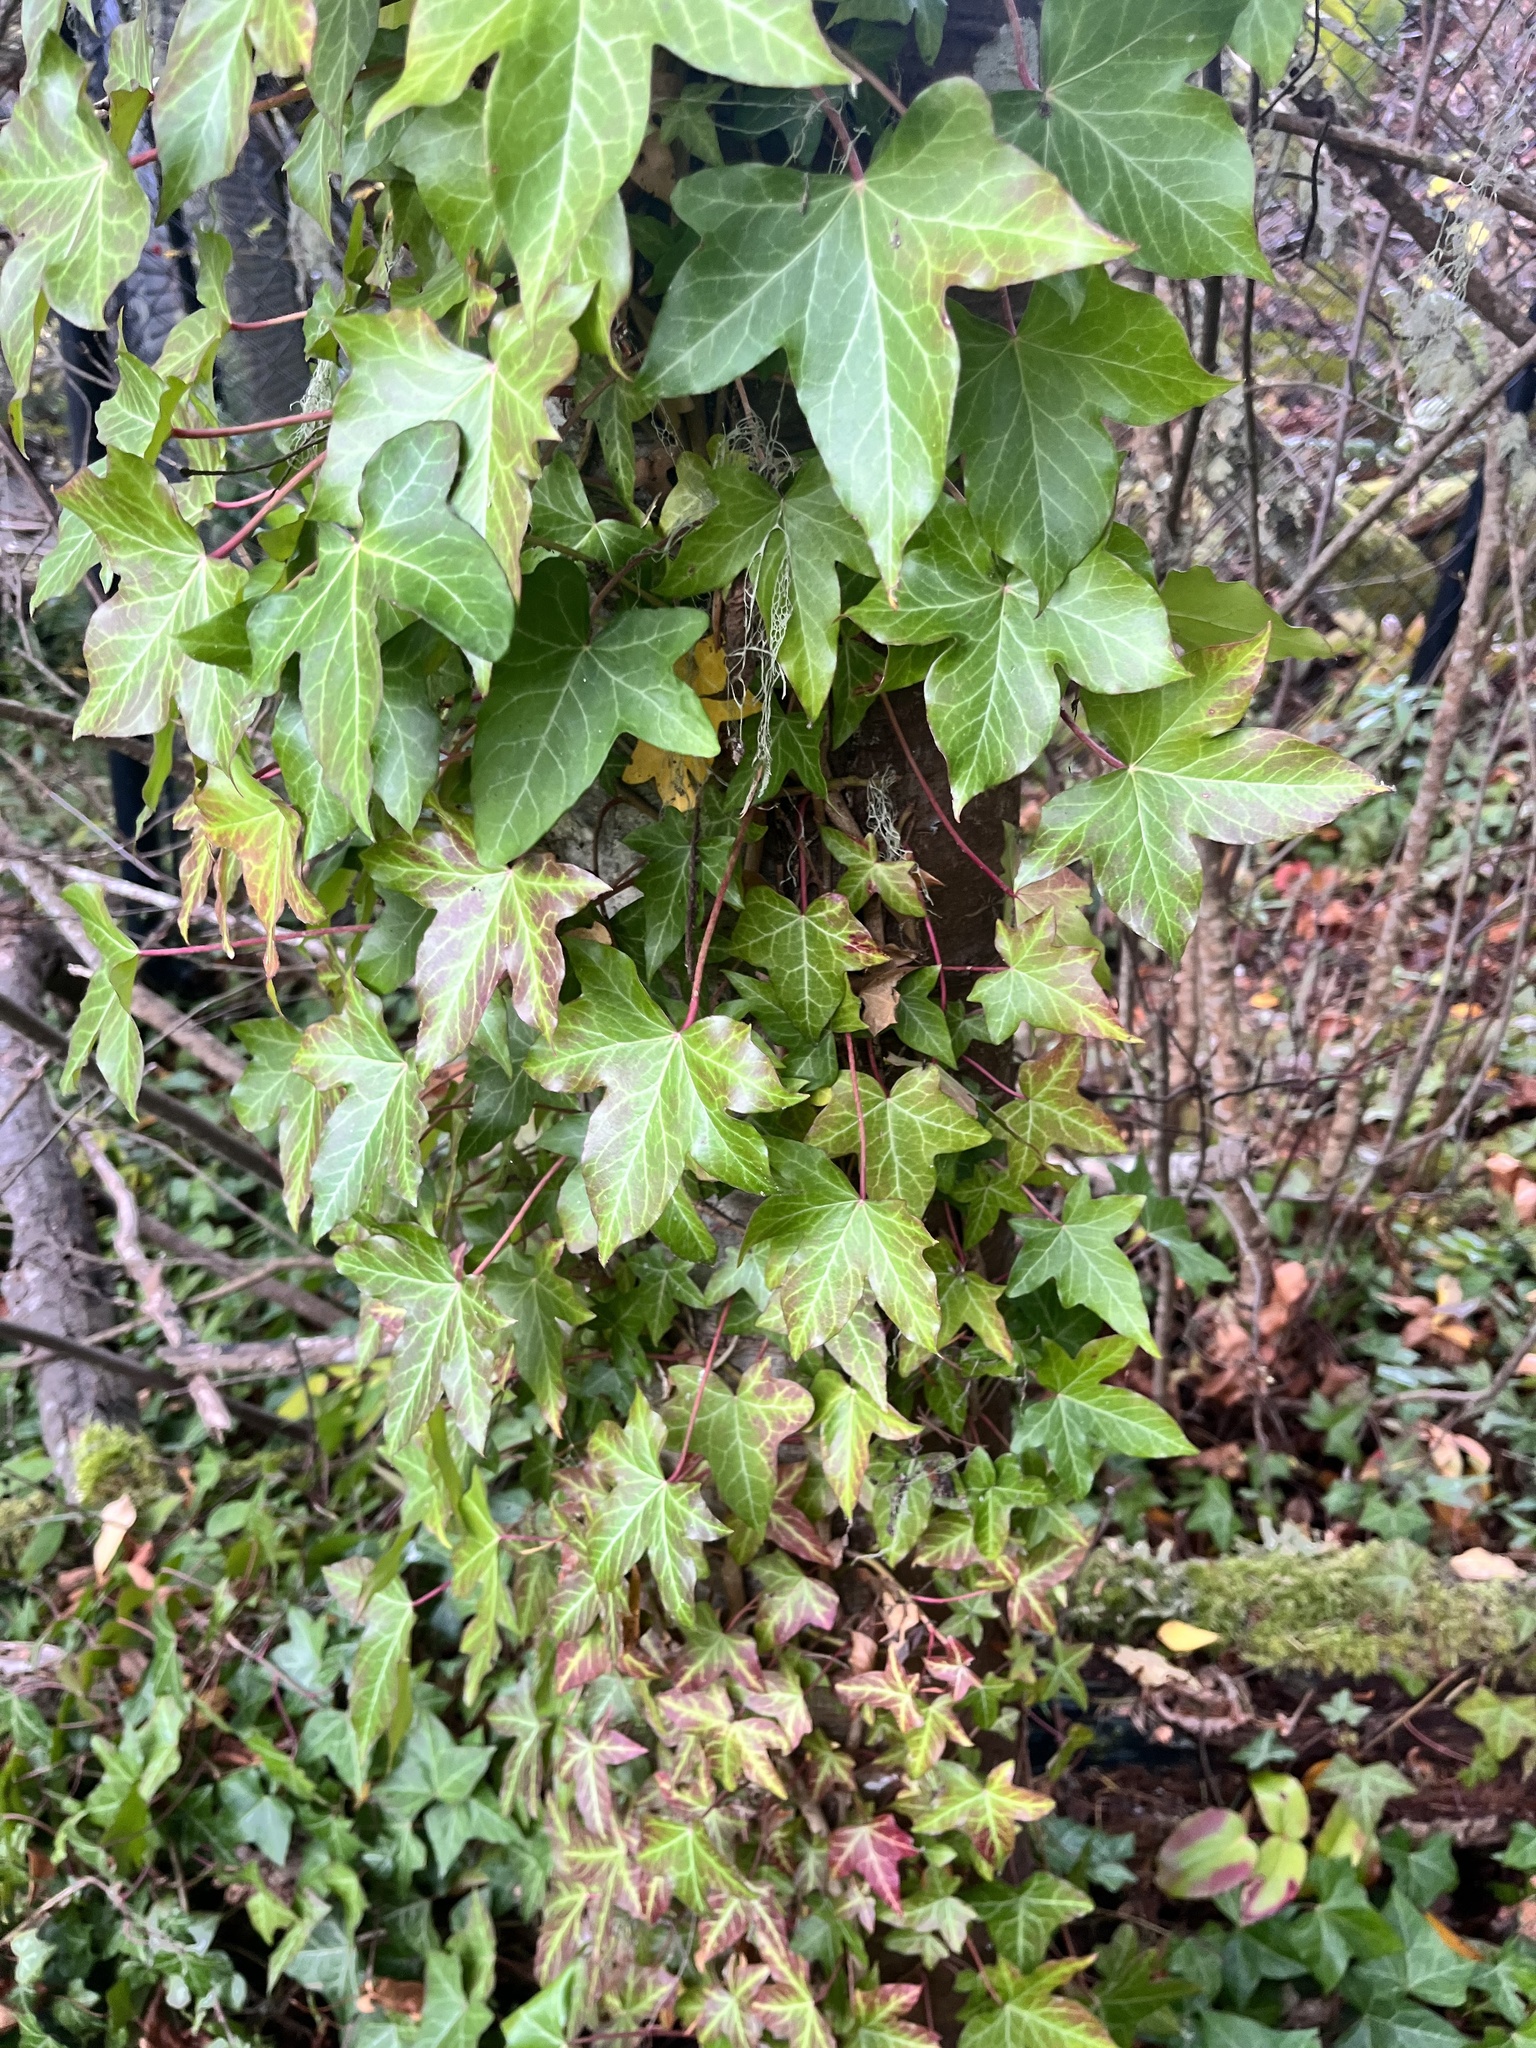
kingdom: Plantae
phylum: Tracheophyta
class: Magnoliopsida
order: Apiales
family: Araliaceae
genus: Hedera
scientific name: Hedera helix
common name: Ivy
